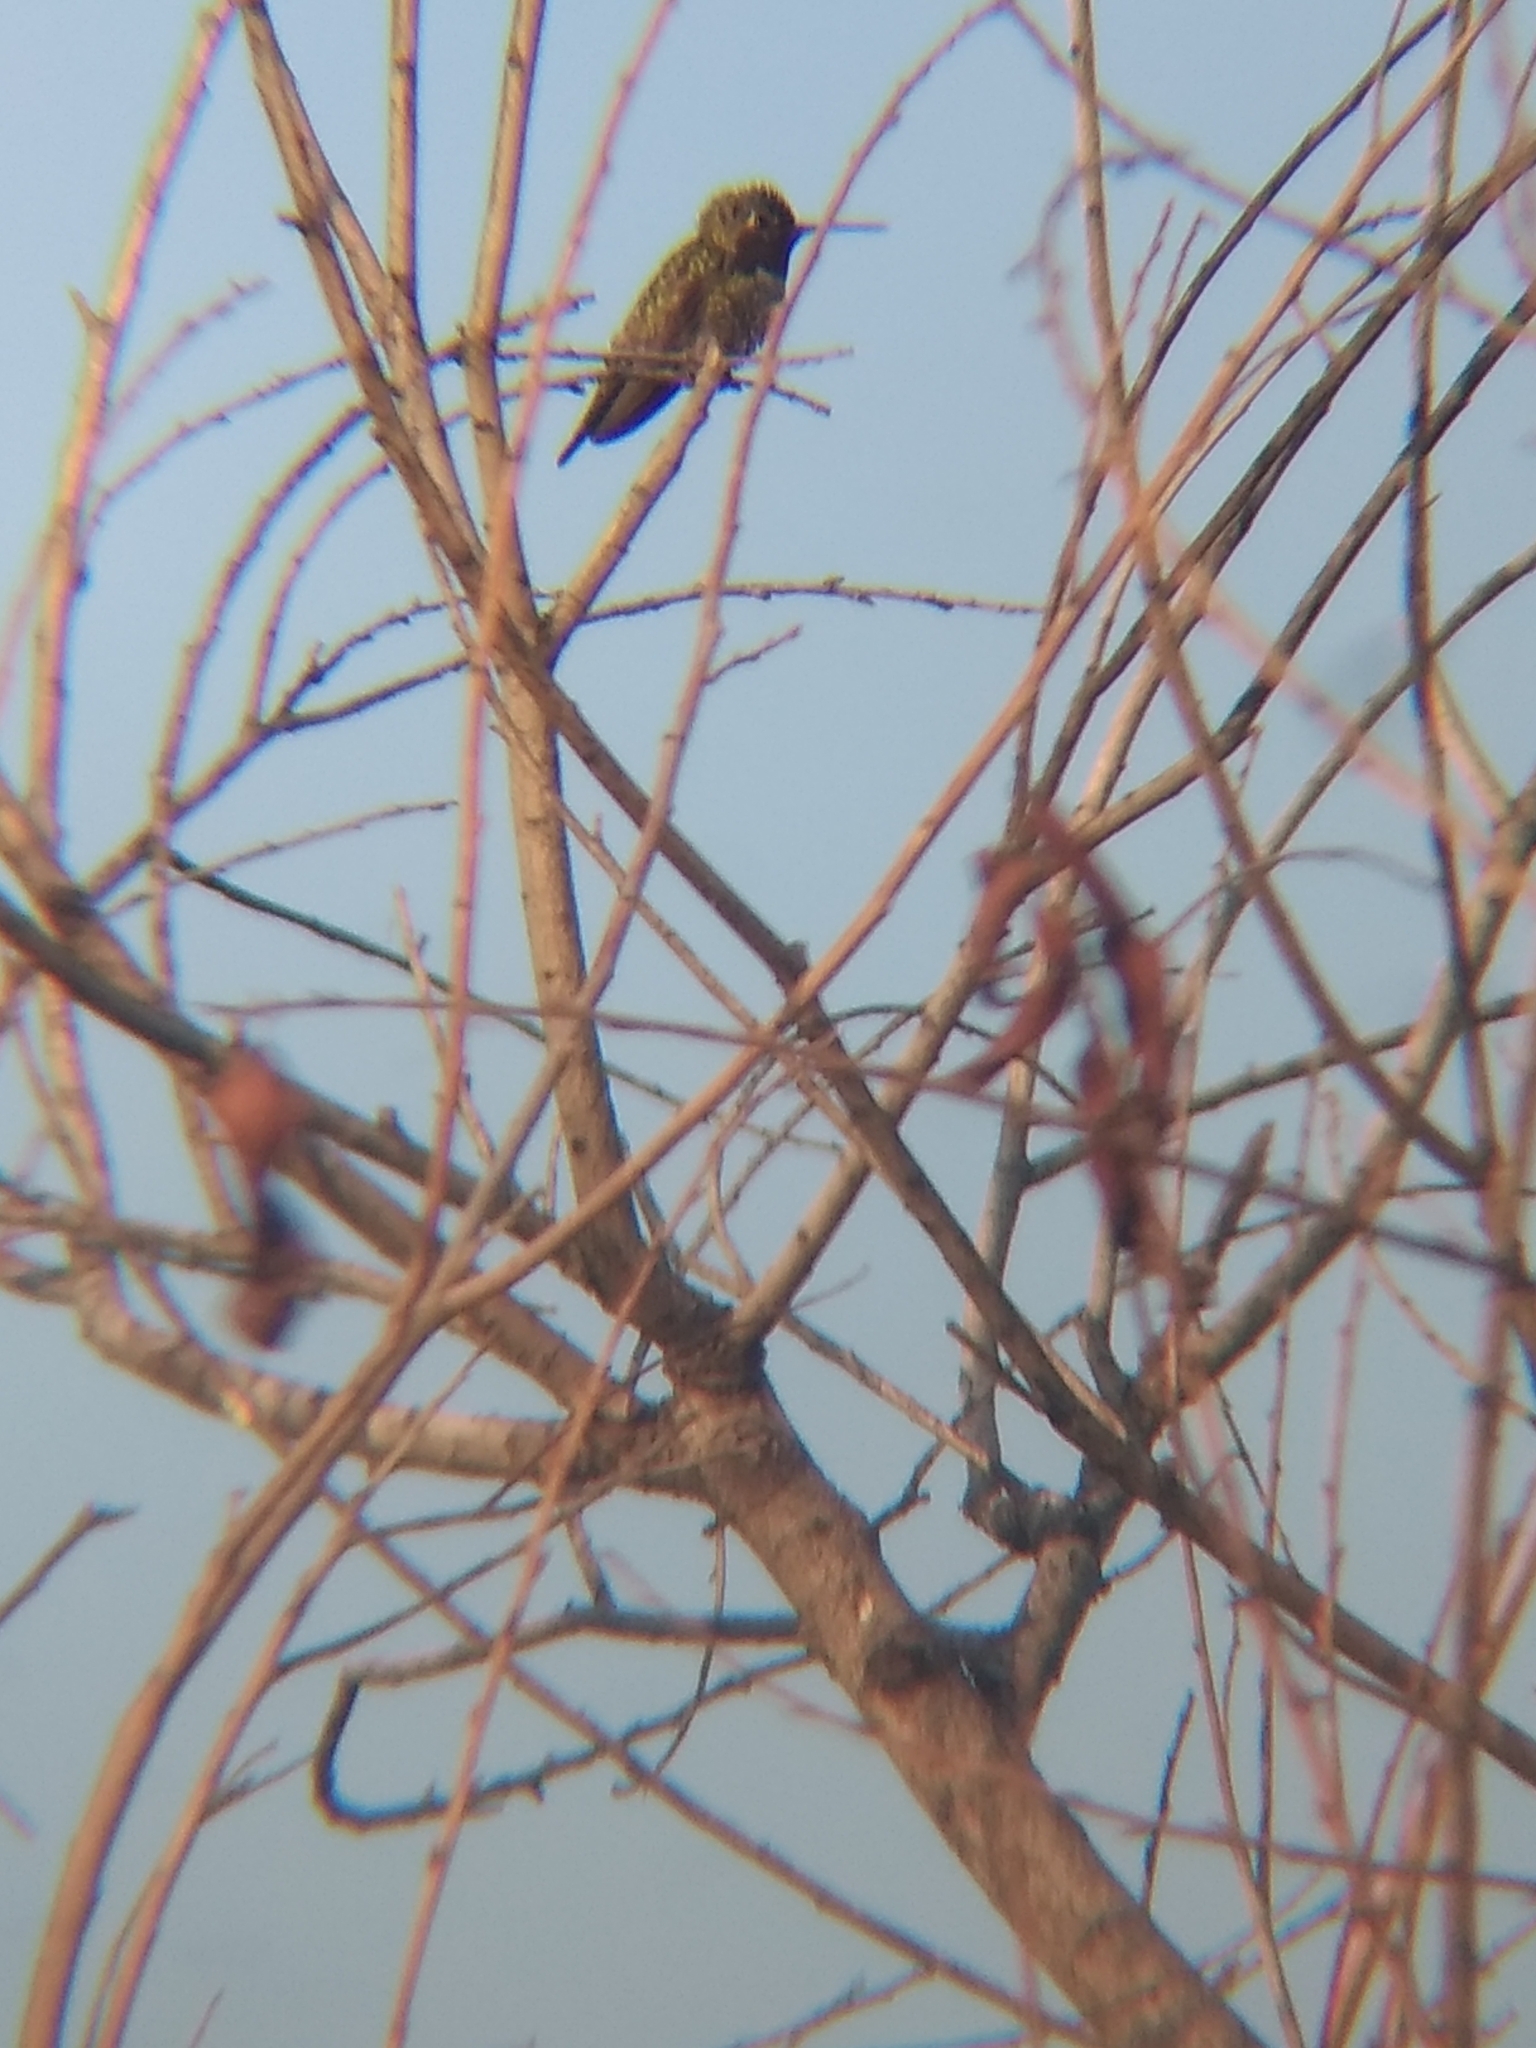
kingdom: Animalia
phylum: Chordata
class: Aves
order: Apodiformes
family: Trochilidae
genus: Calypte
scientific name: Calypte anna
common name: Anna's hummingbird
